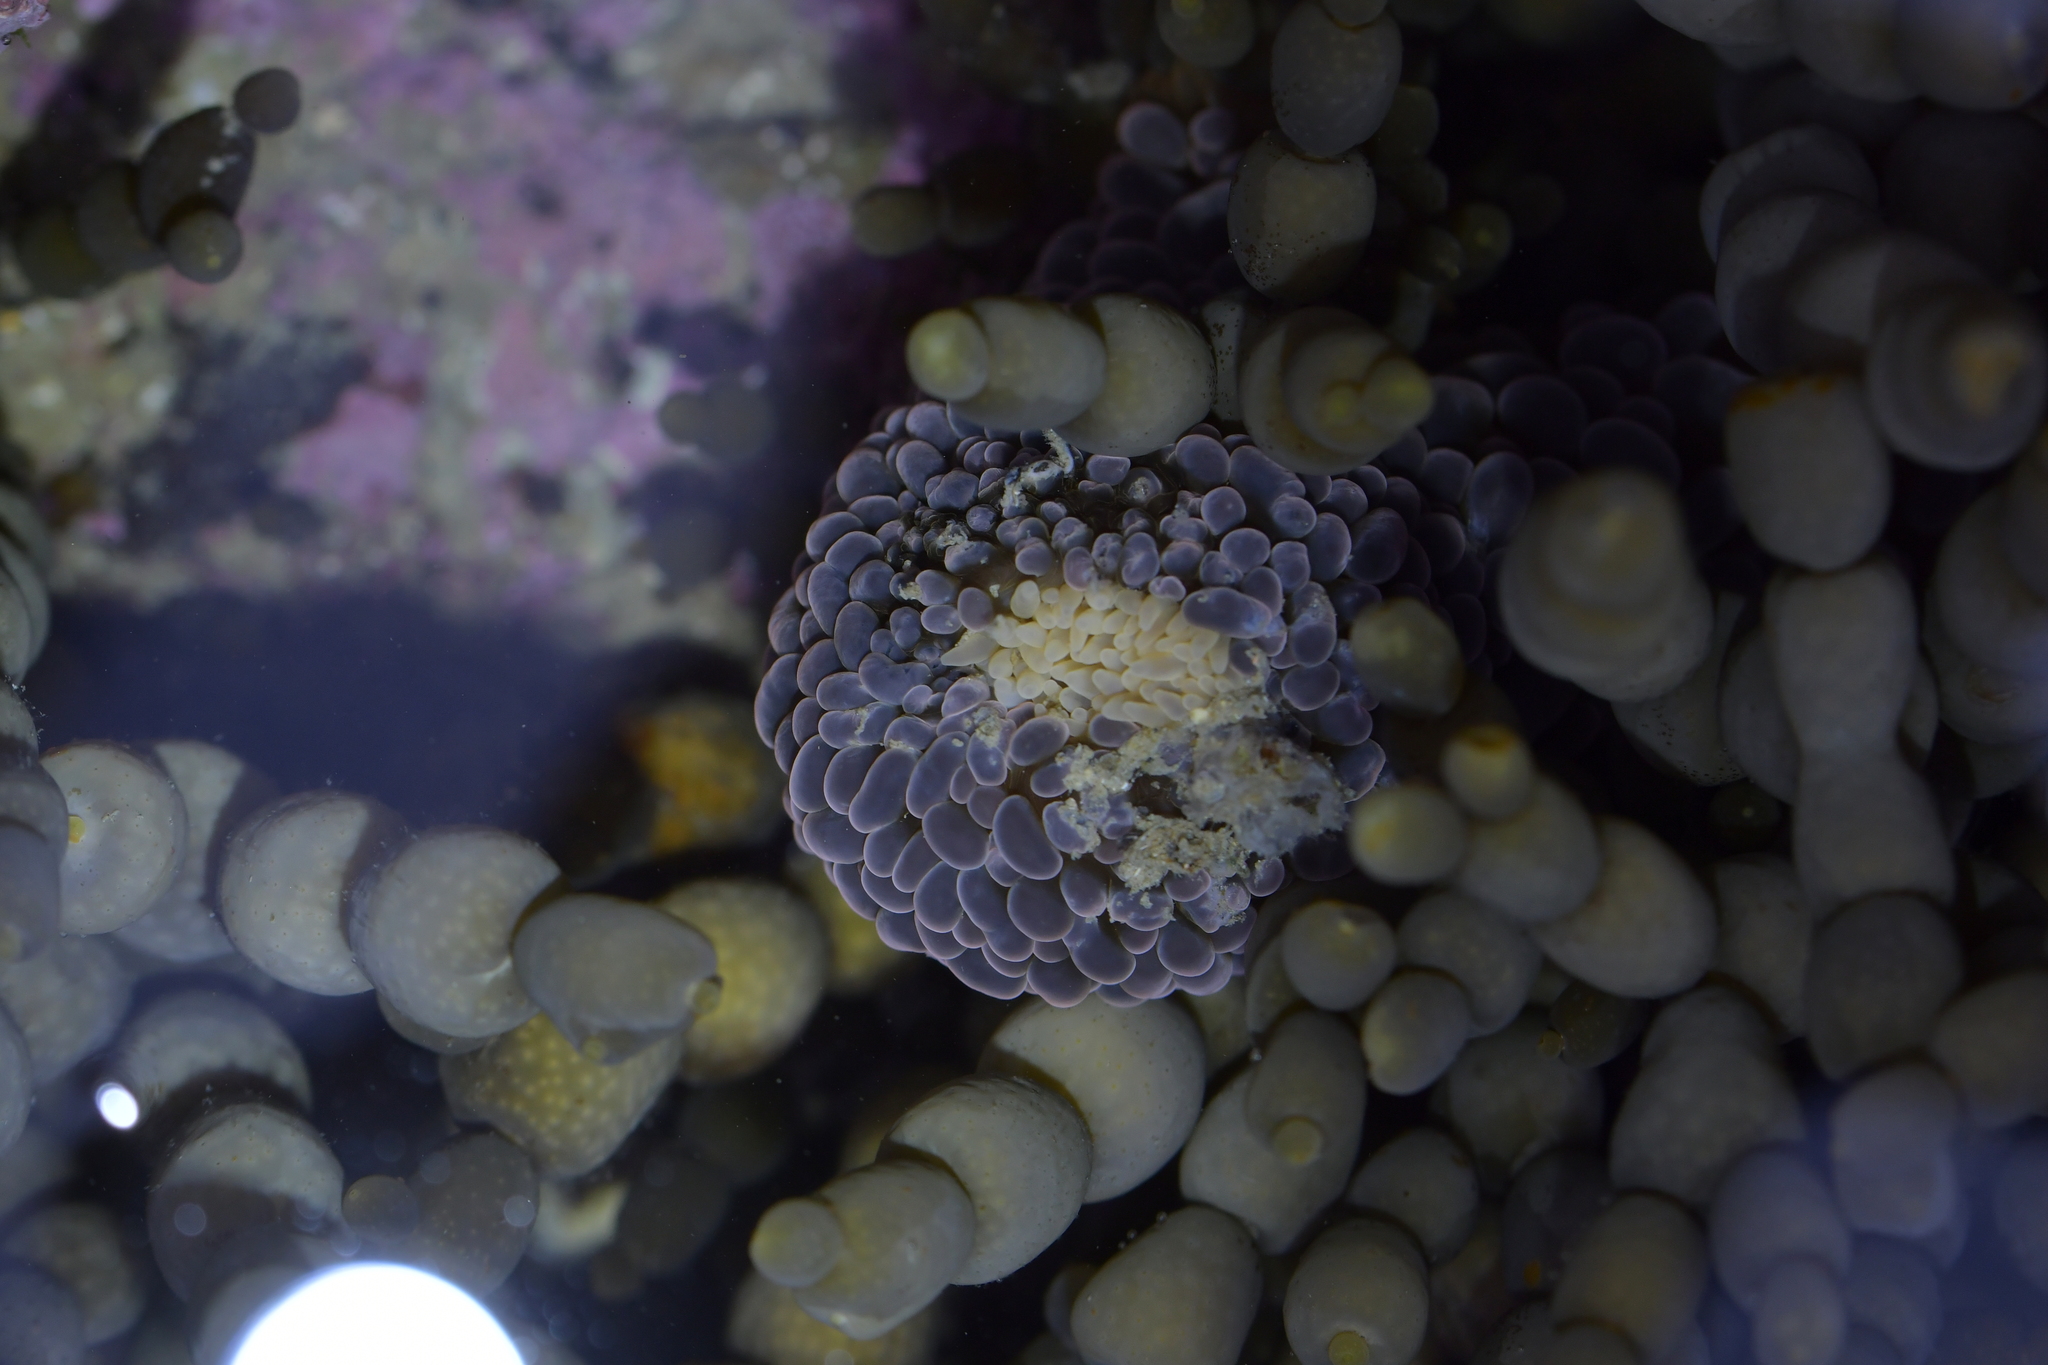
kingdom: Animalia
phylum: Cnidaria
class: Anthozoa
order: Actiniaria
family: Actiniidae
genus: Phlyctenactis
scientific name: Phlyctenactis tuberculosa
